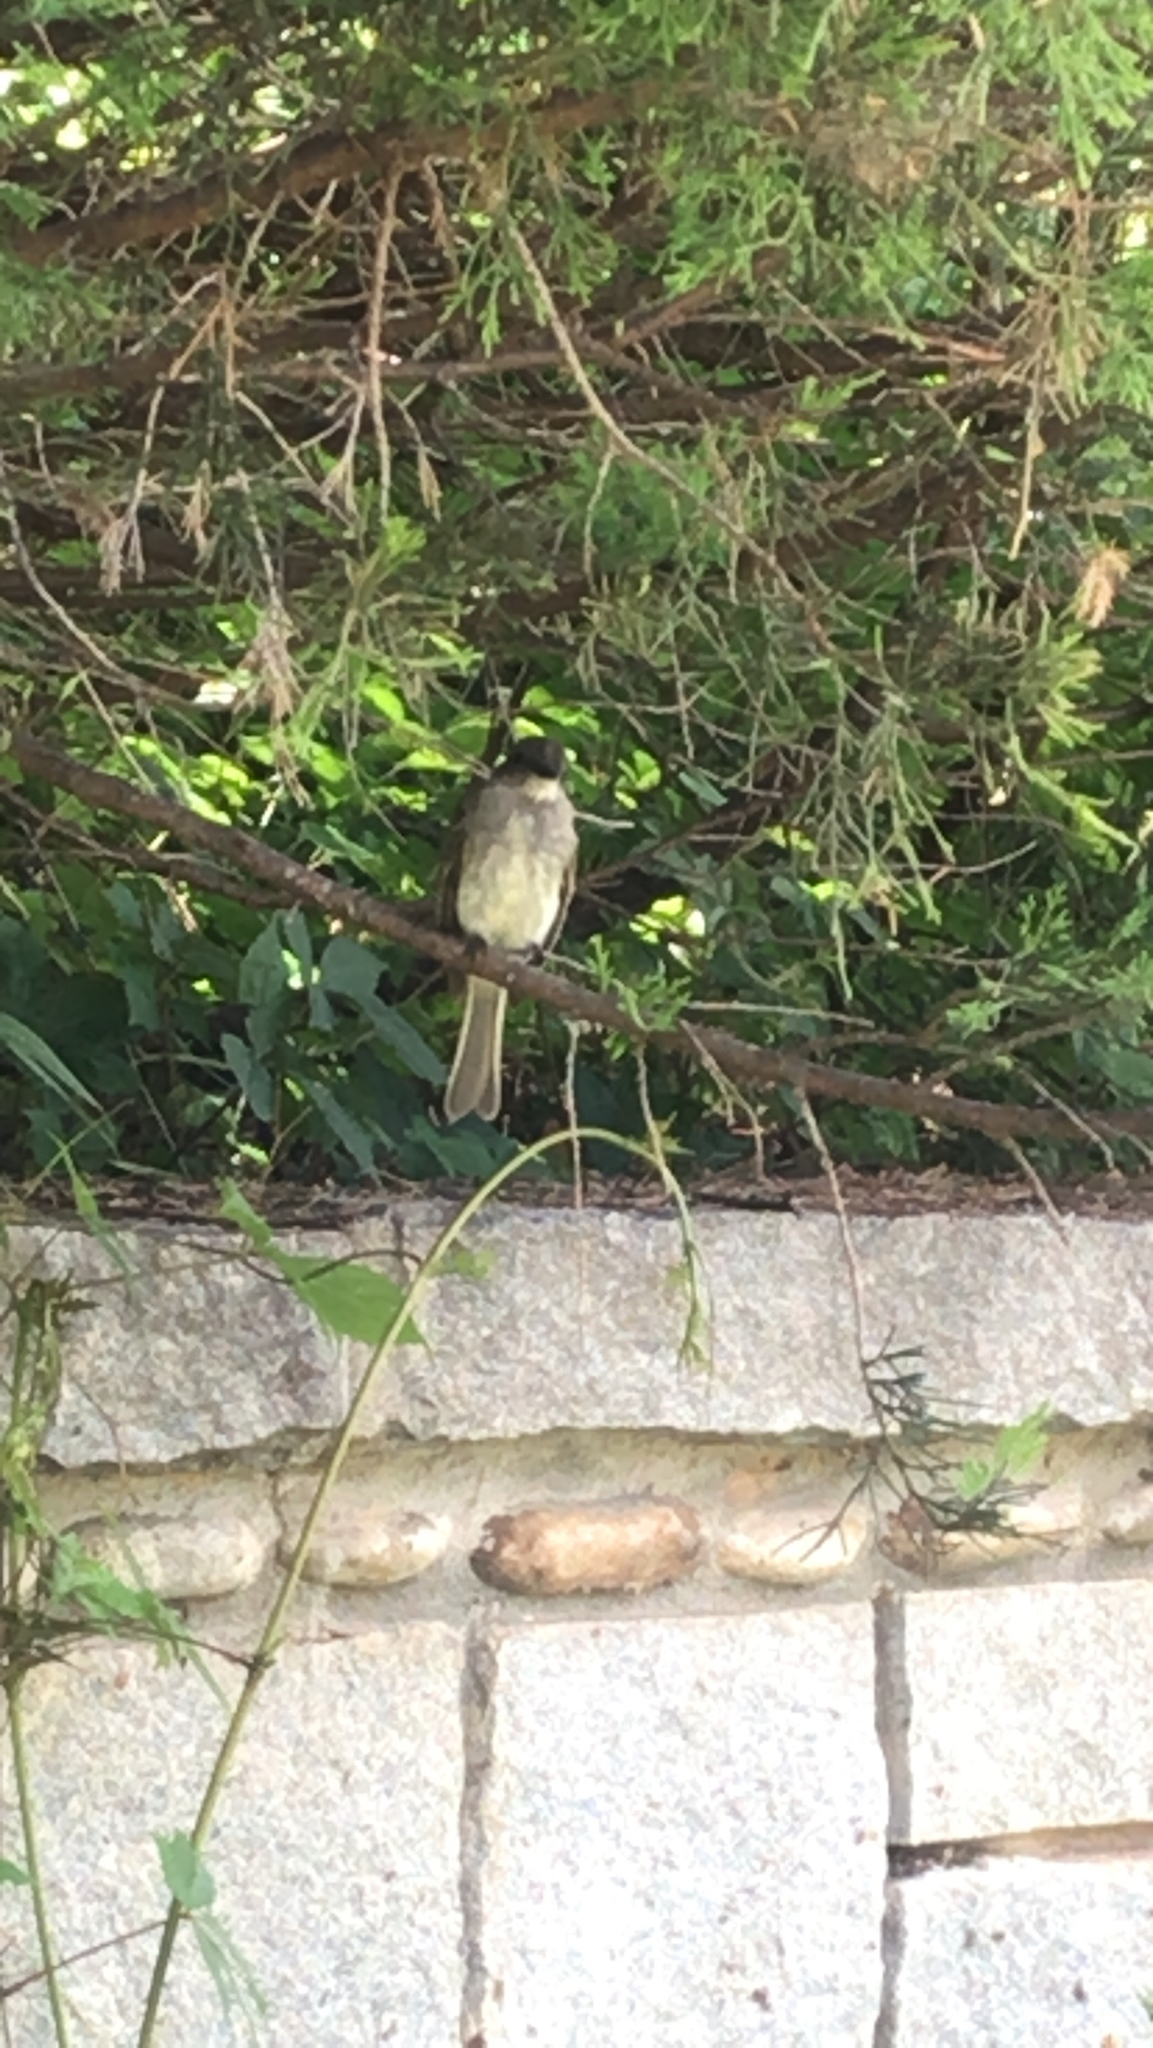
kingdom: Animalia
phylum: Chordata
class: Aves
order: Passeriformes
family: Tyrannidae
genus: Sayornis
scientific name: Sayornis phoebe
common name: Eastern phoebe
